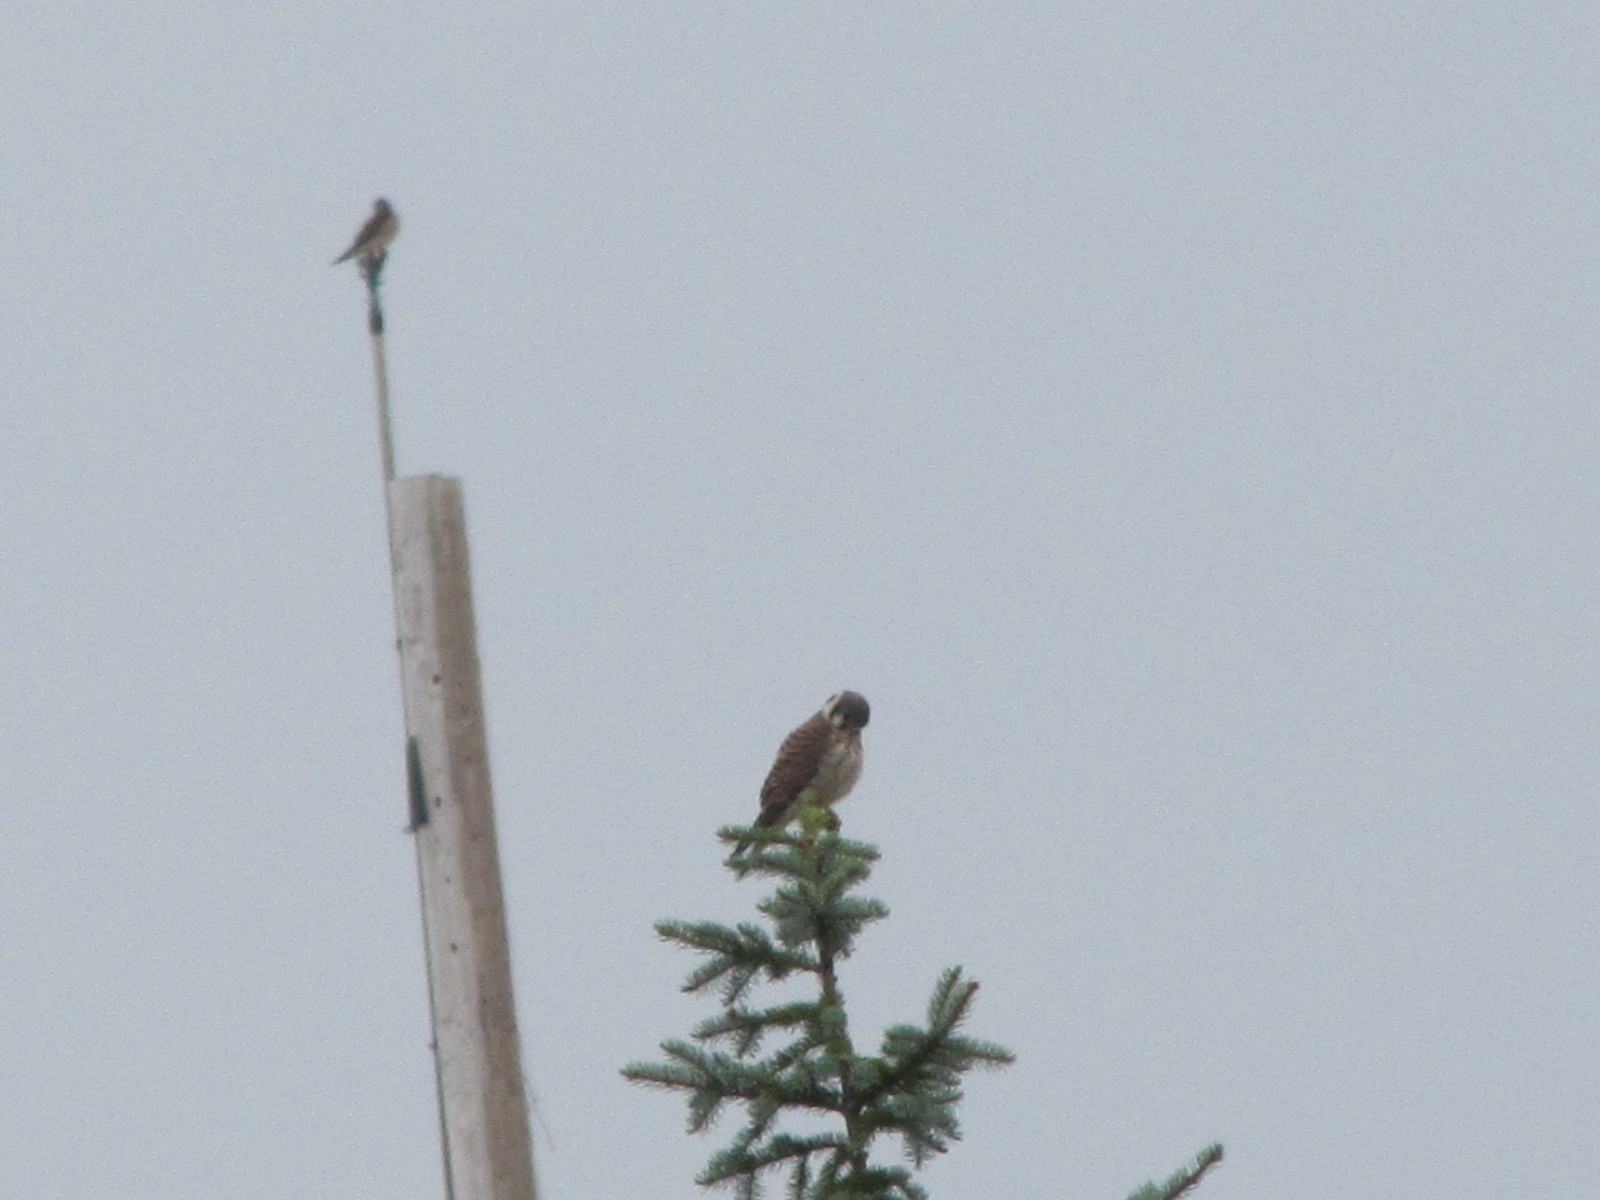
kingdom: Animalia
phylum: Chordata
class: Aves
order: Falconiformes
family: Falconidae
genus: Falco
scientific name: Falco sparverius
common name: American kestrel
